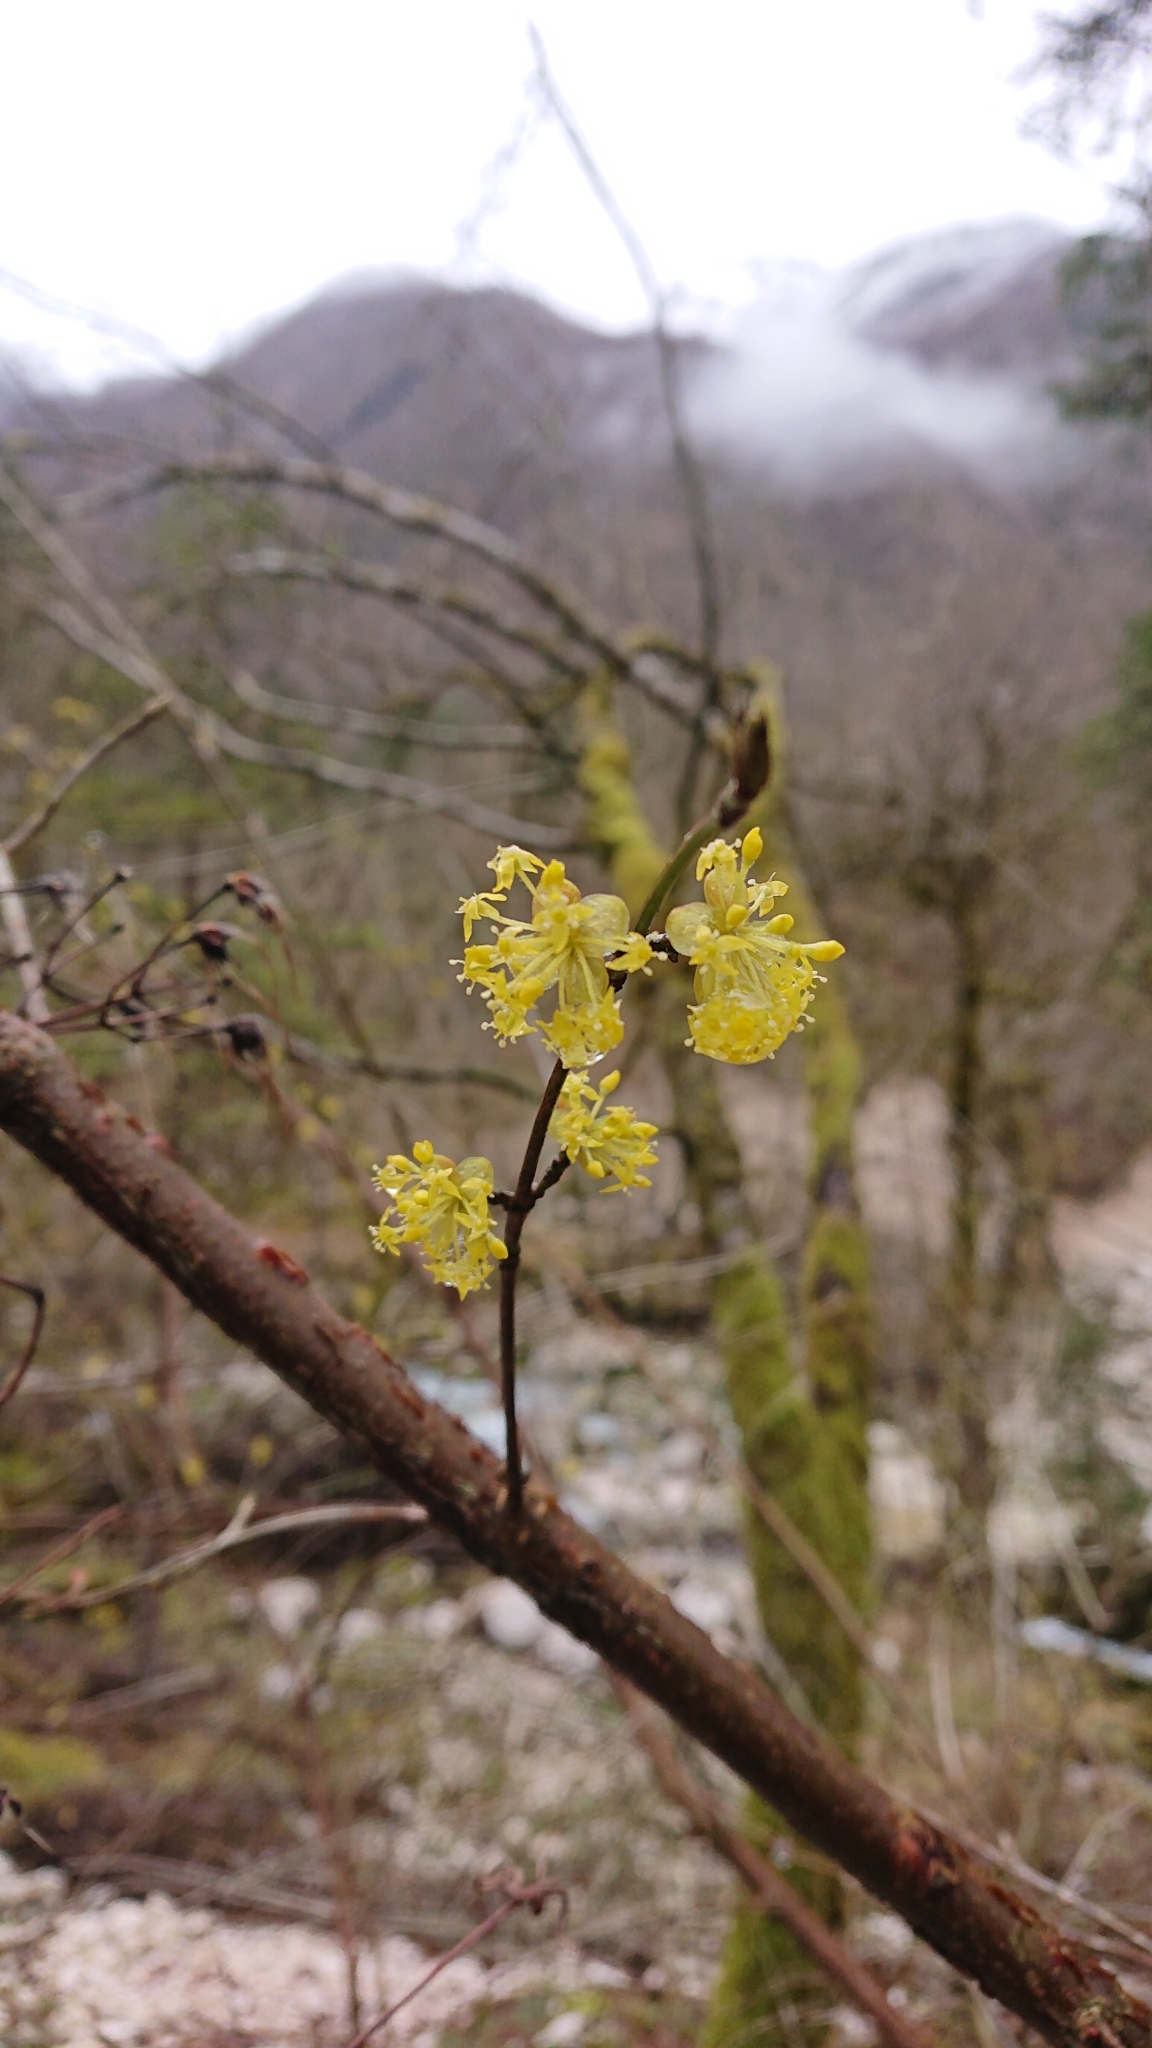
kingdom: Plantae
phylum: Tracheophyta
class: Magnoliopsida
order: Cornales
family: Cornaceae
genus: Cornus
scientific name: Cornus mas
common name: Cornelian-cherry
